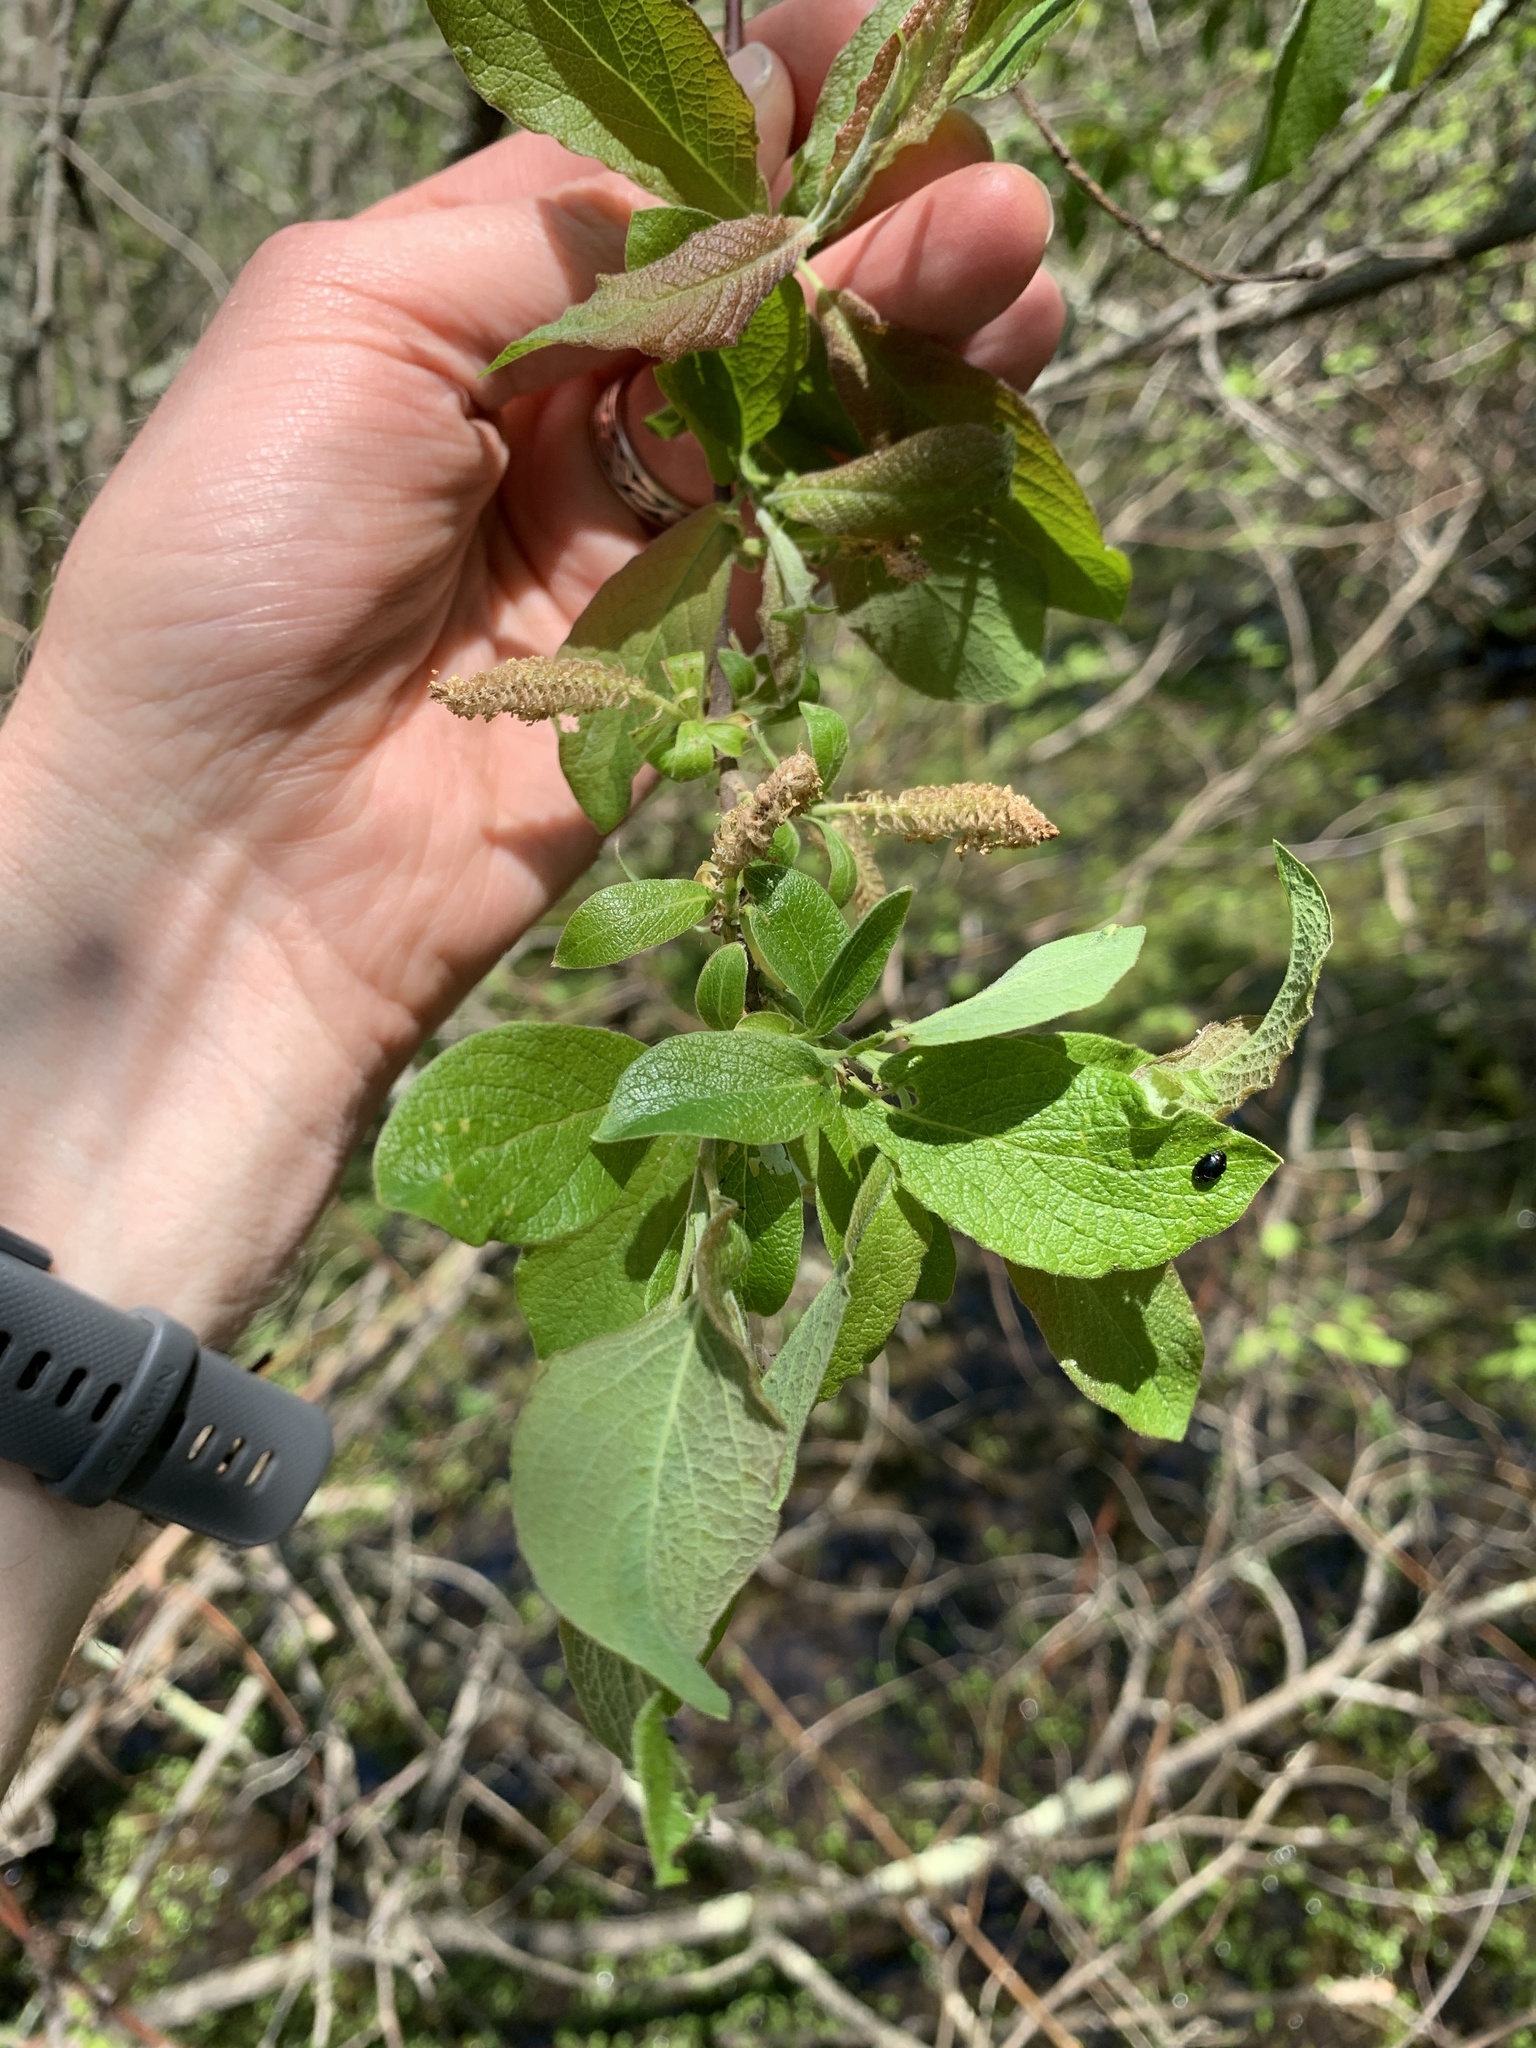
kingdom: Plantae
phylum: Tracheophyta
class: Magnoliopsida
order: Malpighiales
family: Salicaceae
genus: Salix
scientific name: Salix bebbiana
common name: Bebb's willow
